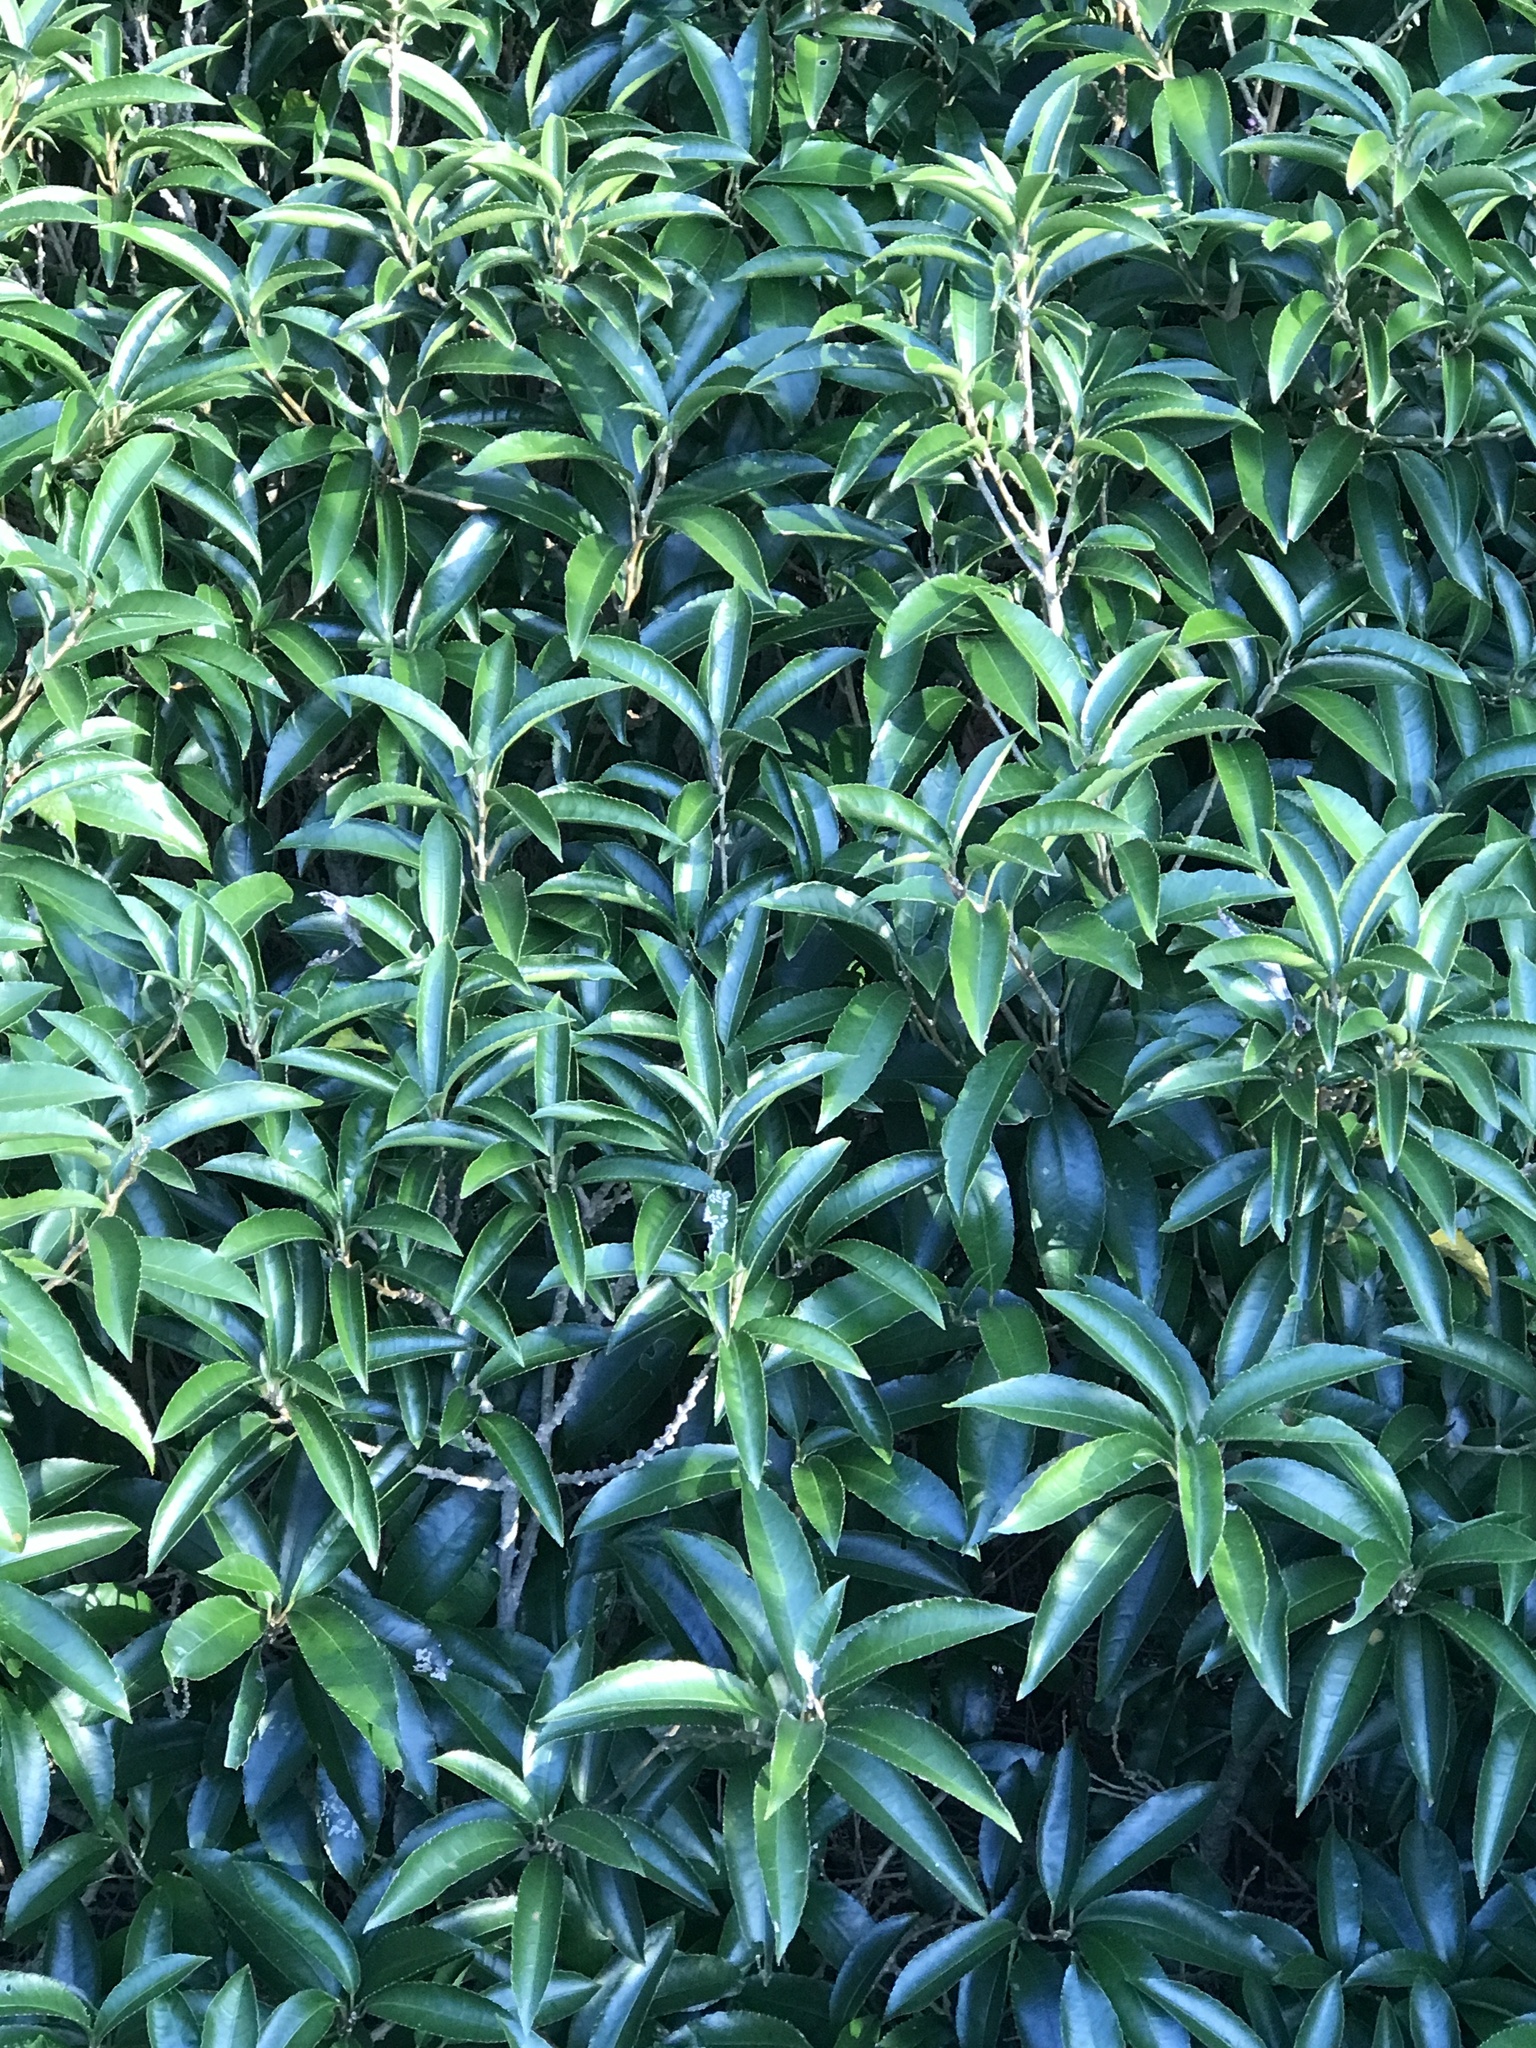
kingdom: Plantae
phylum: Tracheophyta
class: Magnoliopsida
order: Malpighiales
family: Violaceae
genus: Melicytus
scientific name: Melicytus ramiflorus
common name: Mahoe
